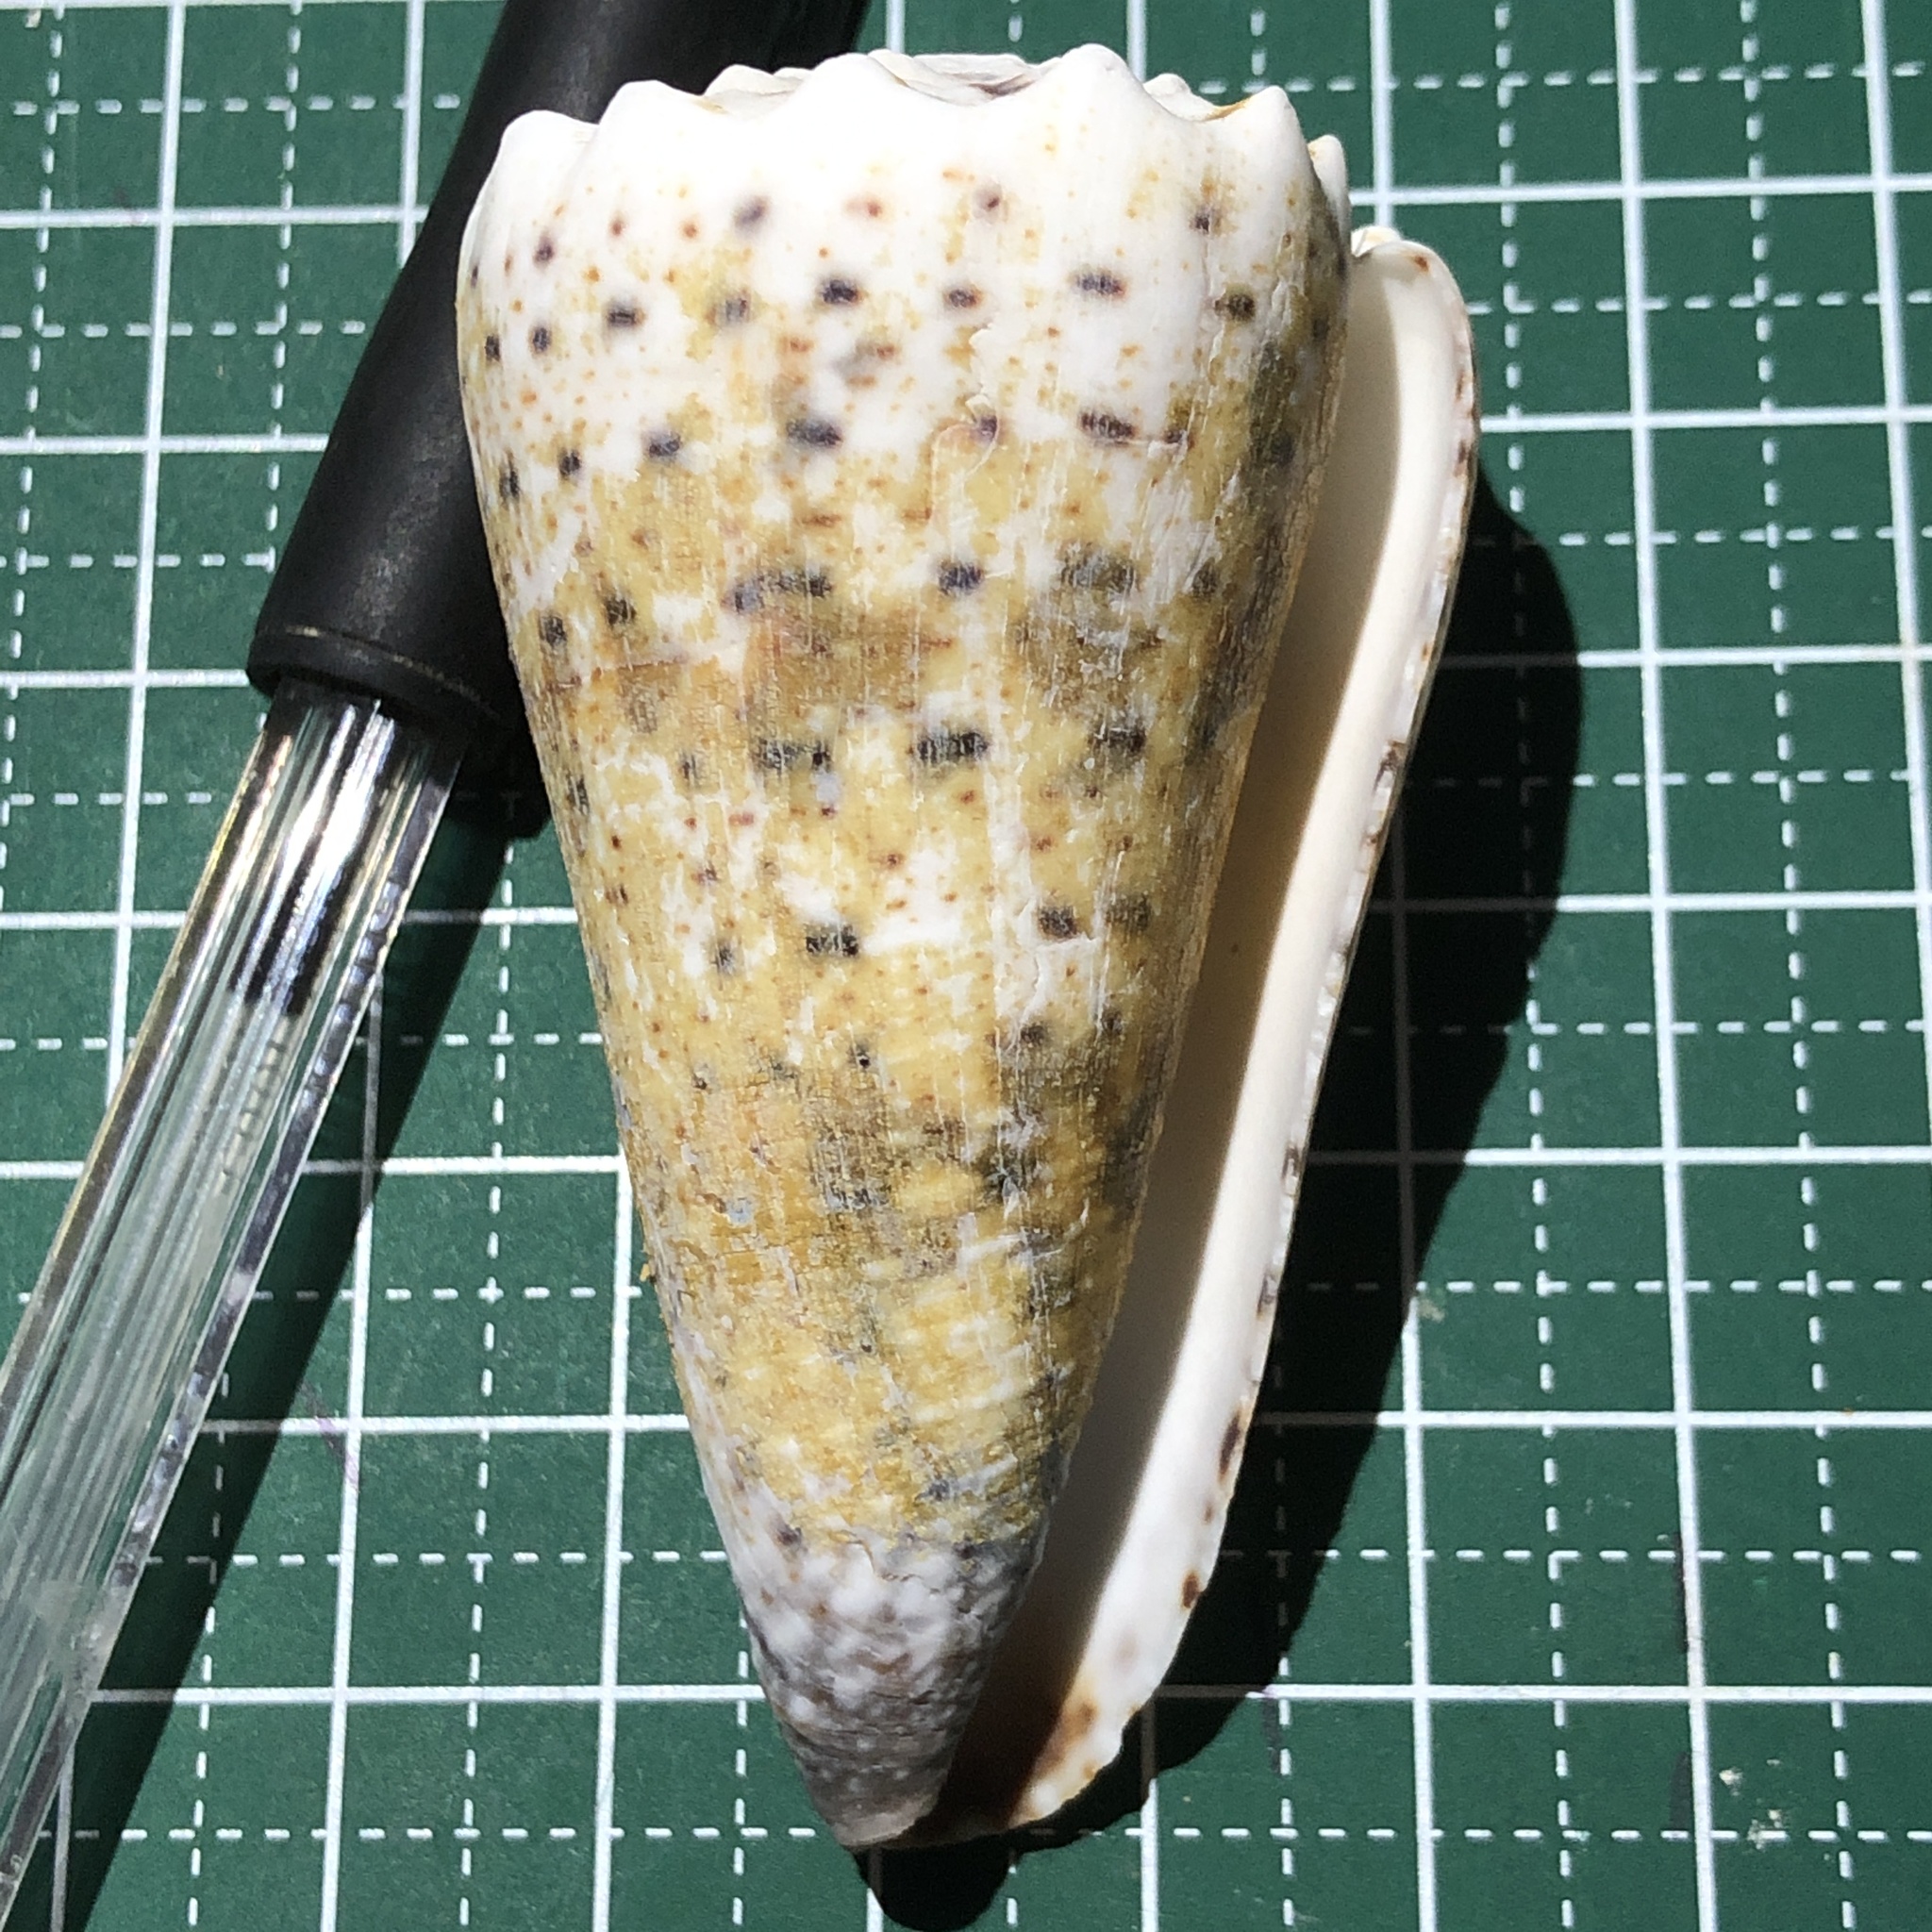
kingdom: Animalia
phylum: Mollusca
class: Gastropoda
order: Neogastropoda
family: Conidae
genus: Conus
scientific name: Conus imperialis
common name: Imperial cone
